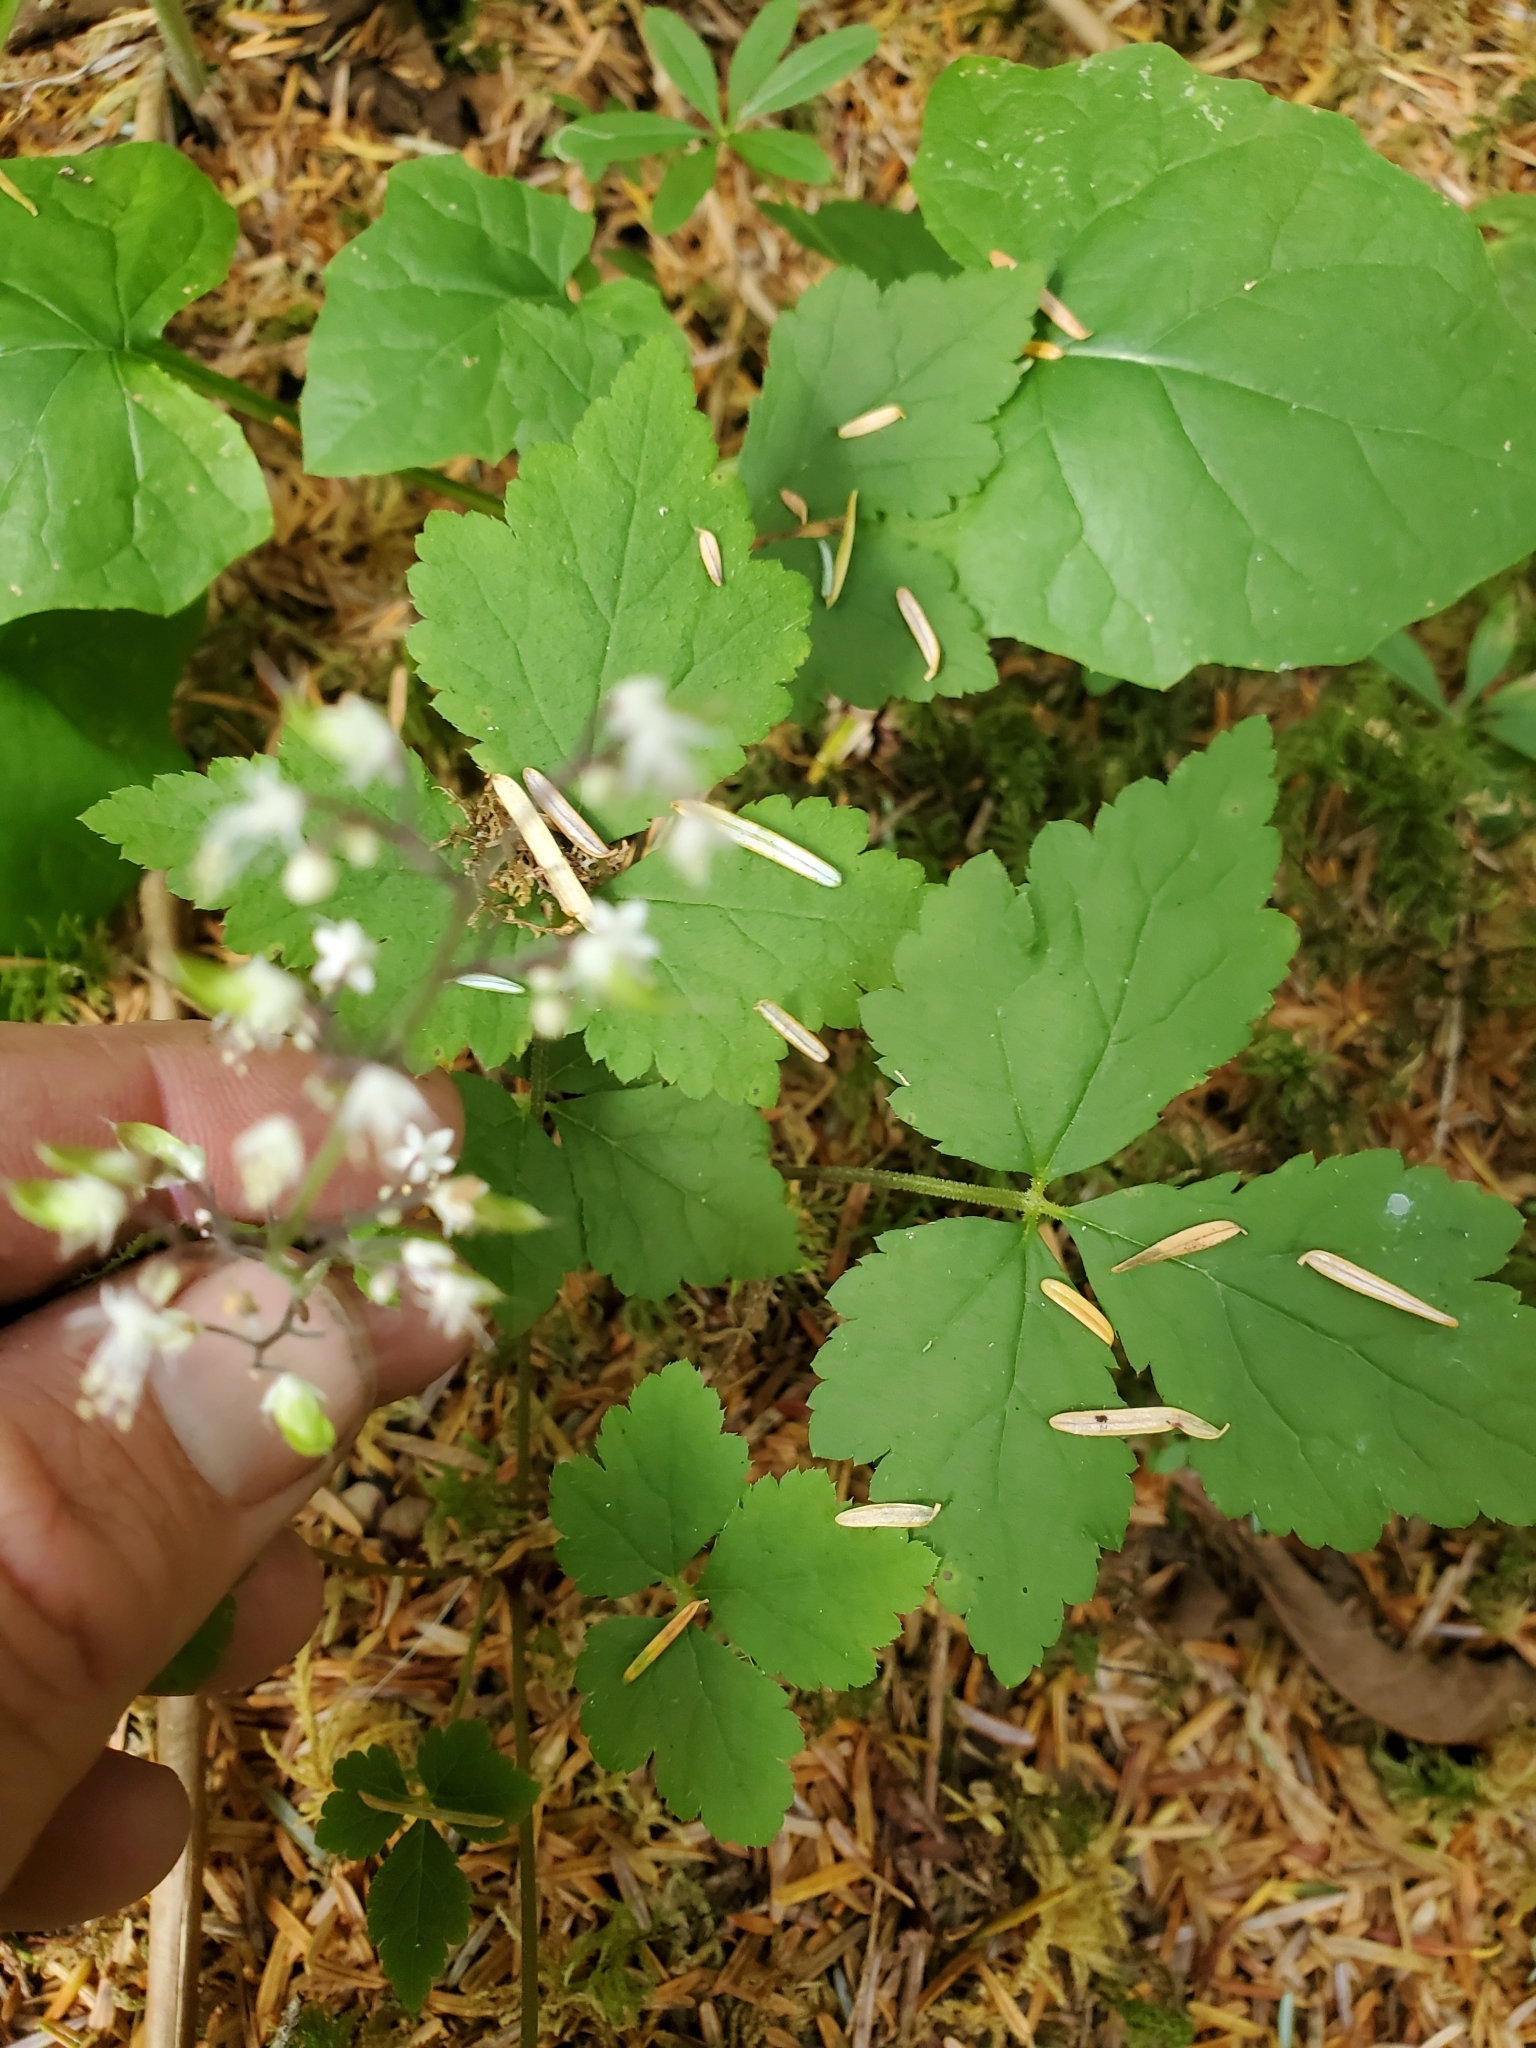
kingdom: Plantae
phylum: Tracheophyta
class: Magnoliopsida
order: Saxifragales
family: Saxifragaceae
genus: Tiarella
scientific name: Tiarella trifoliata
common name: Sugar-scoop
